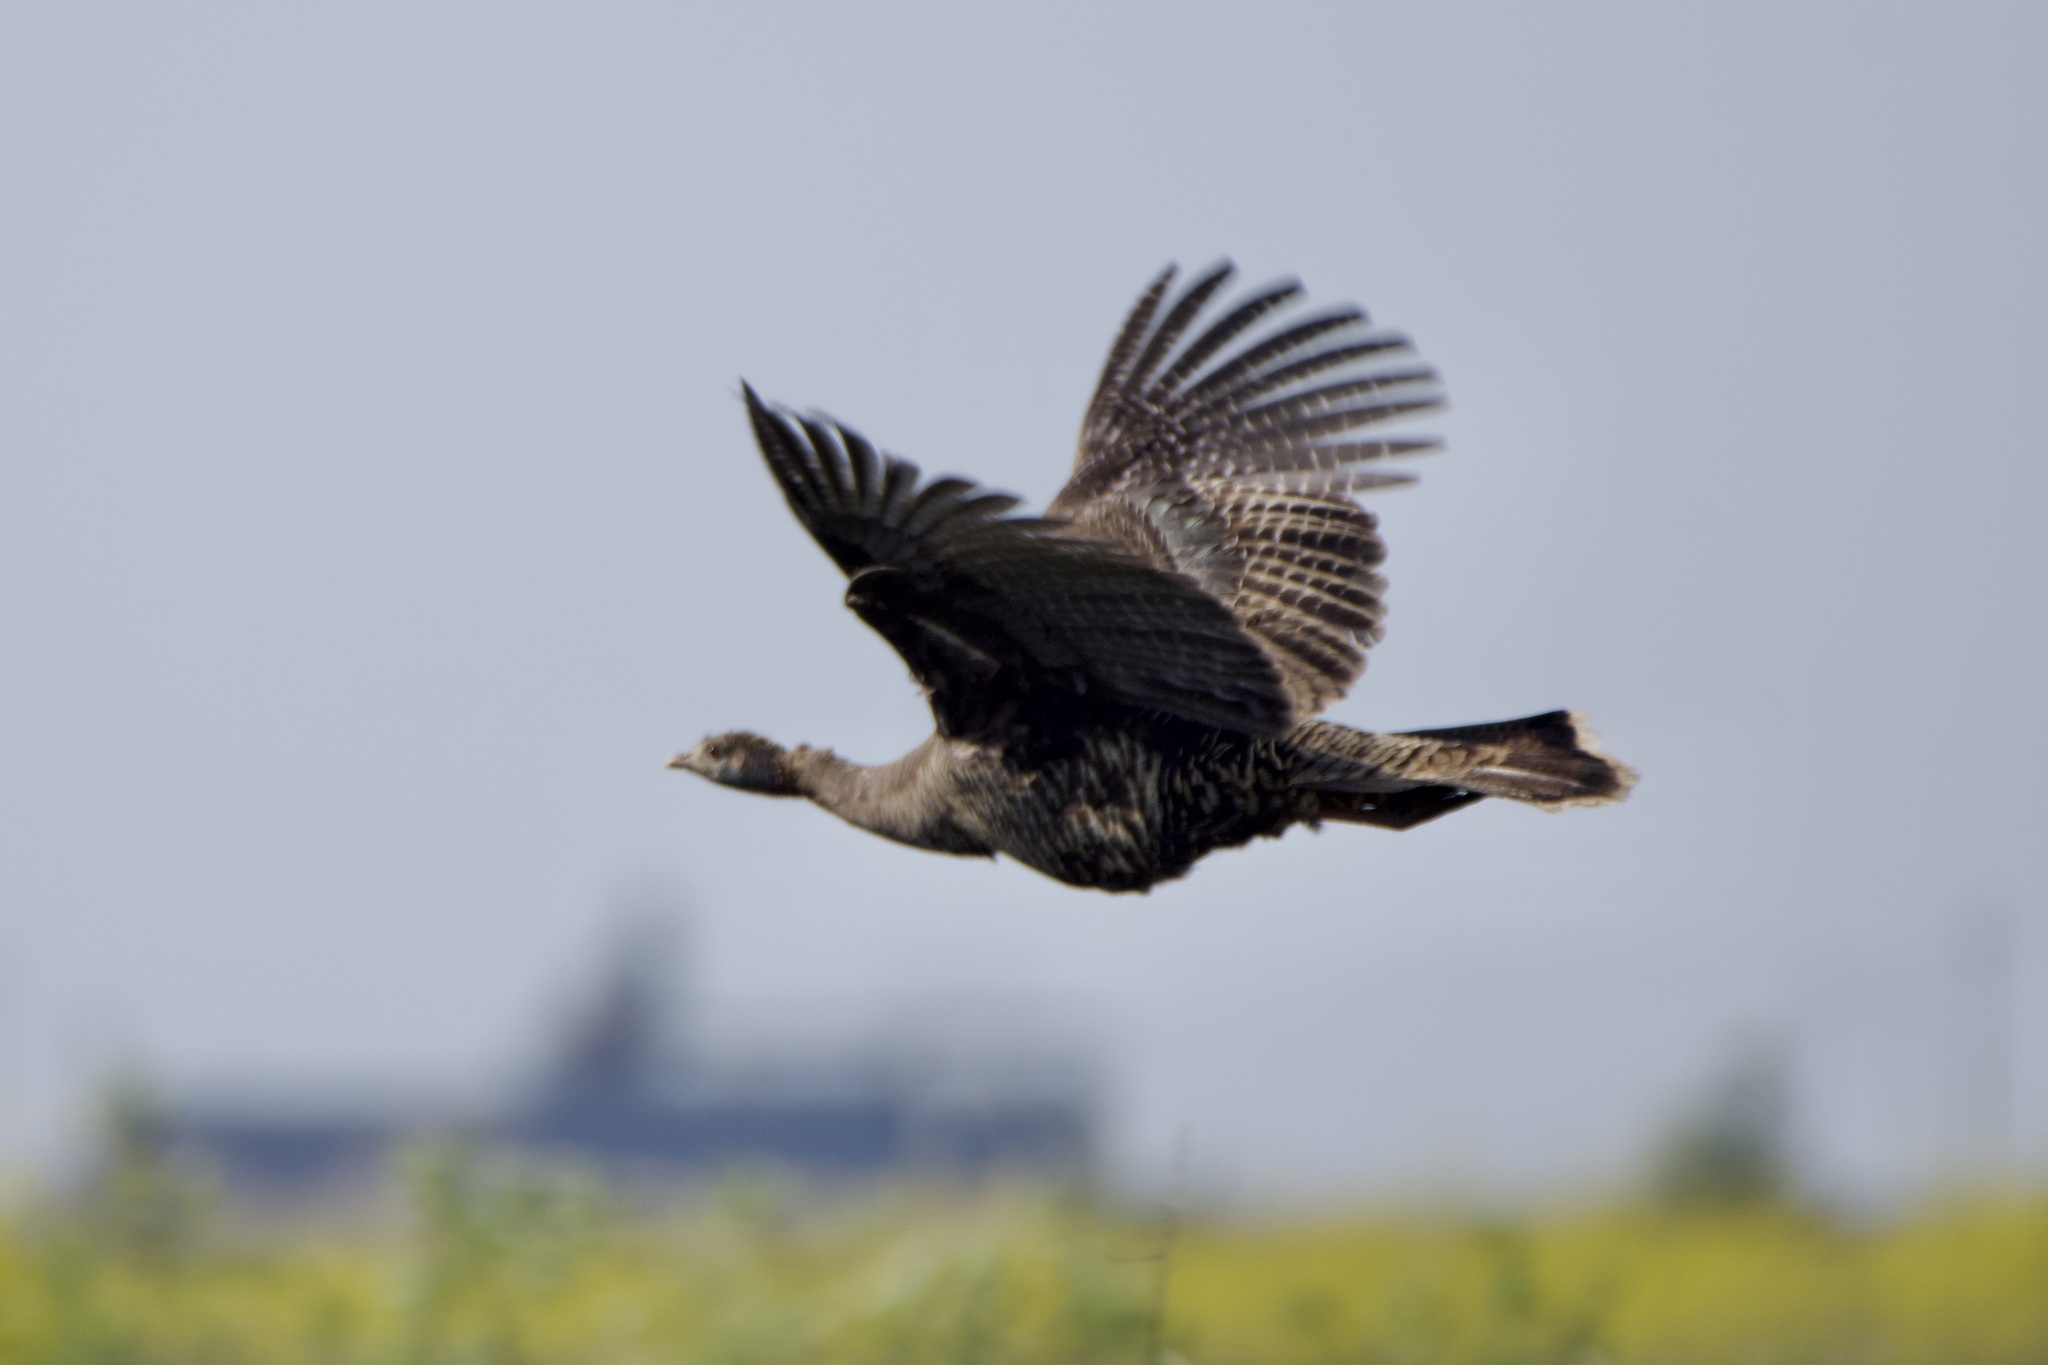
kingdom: Animalia
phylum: Chordata
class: Aves
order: Galliformes
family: Phasianidae
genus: Meleagris
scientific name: Meleagris gallopavo
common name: Wild turkey
